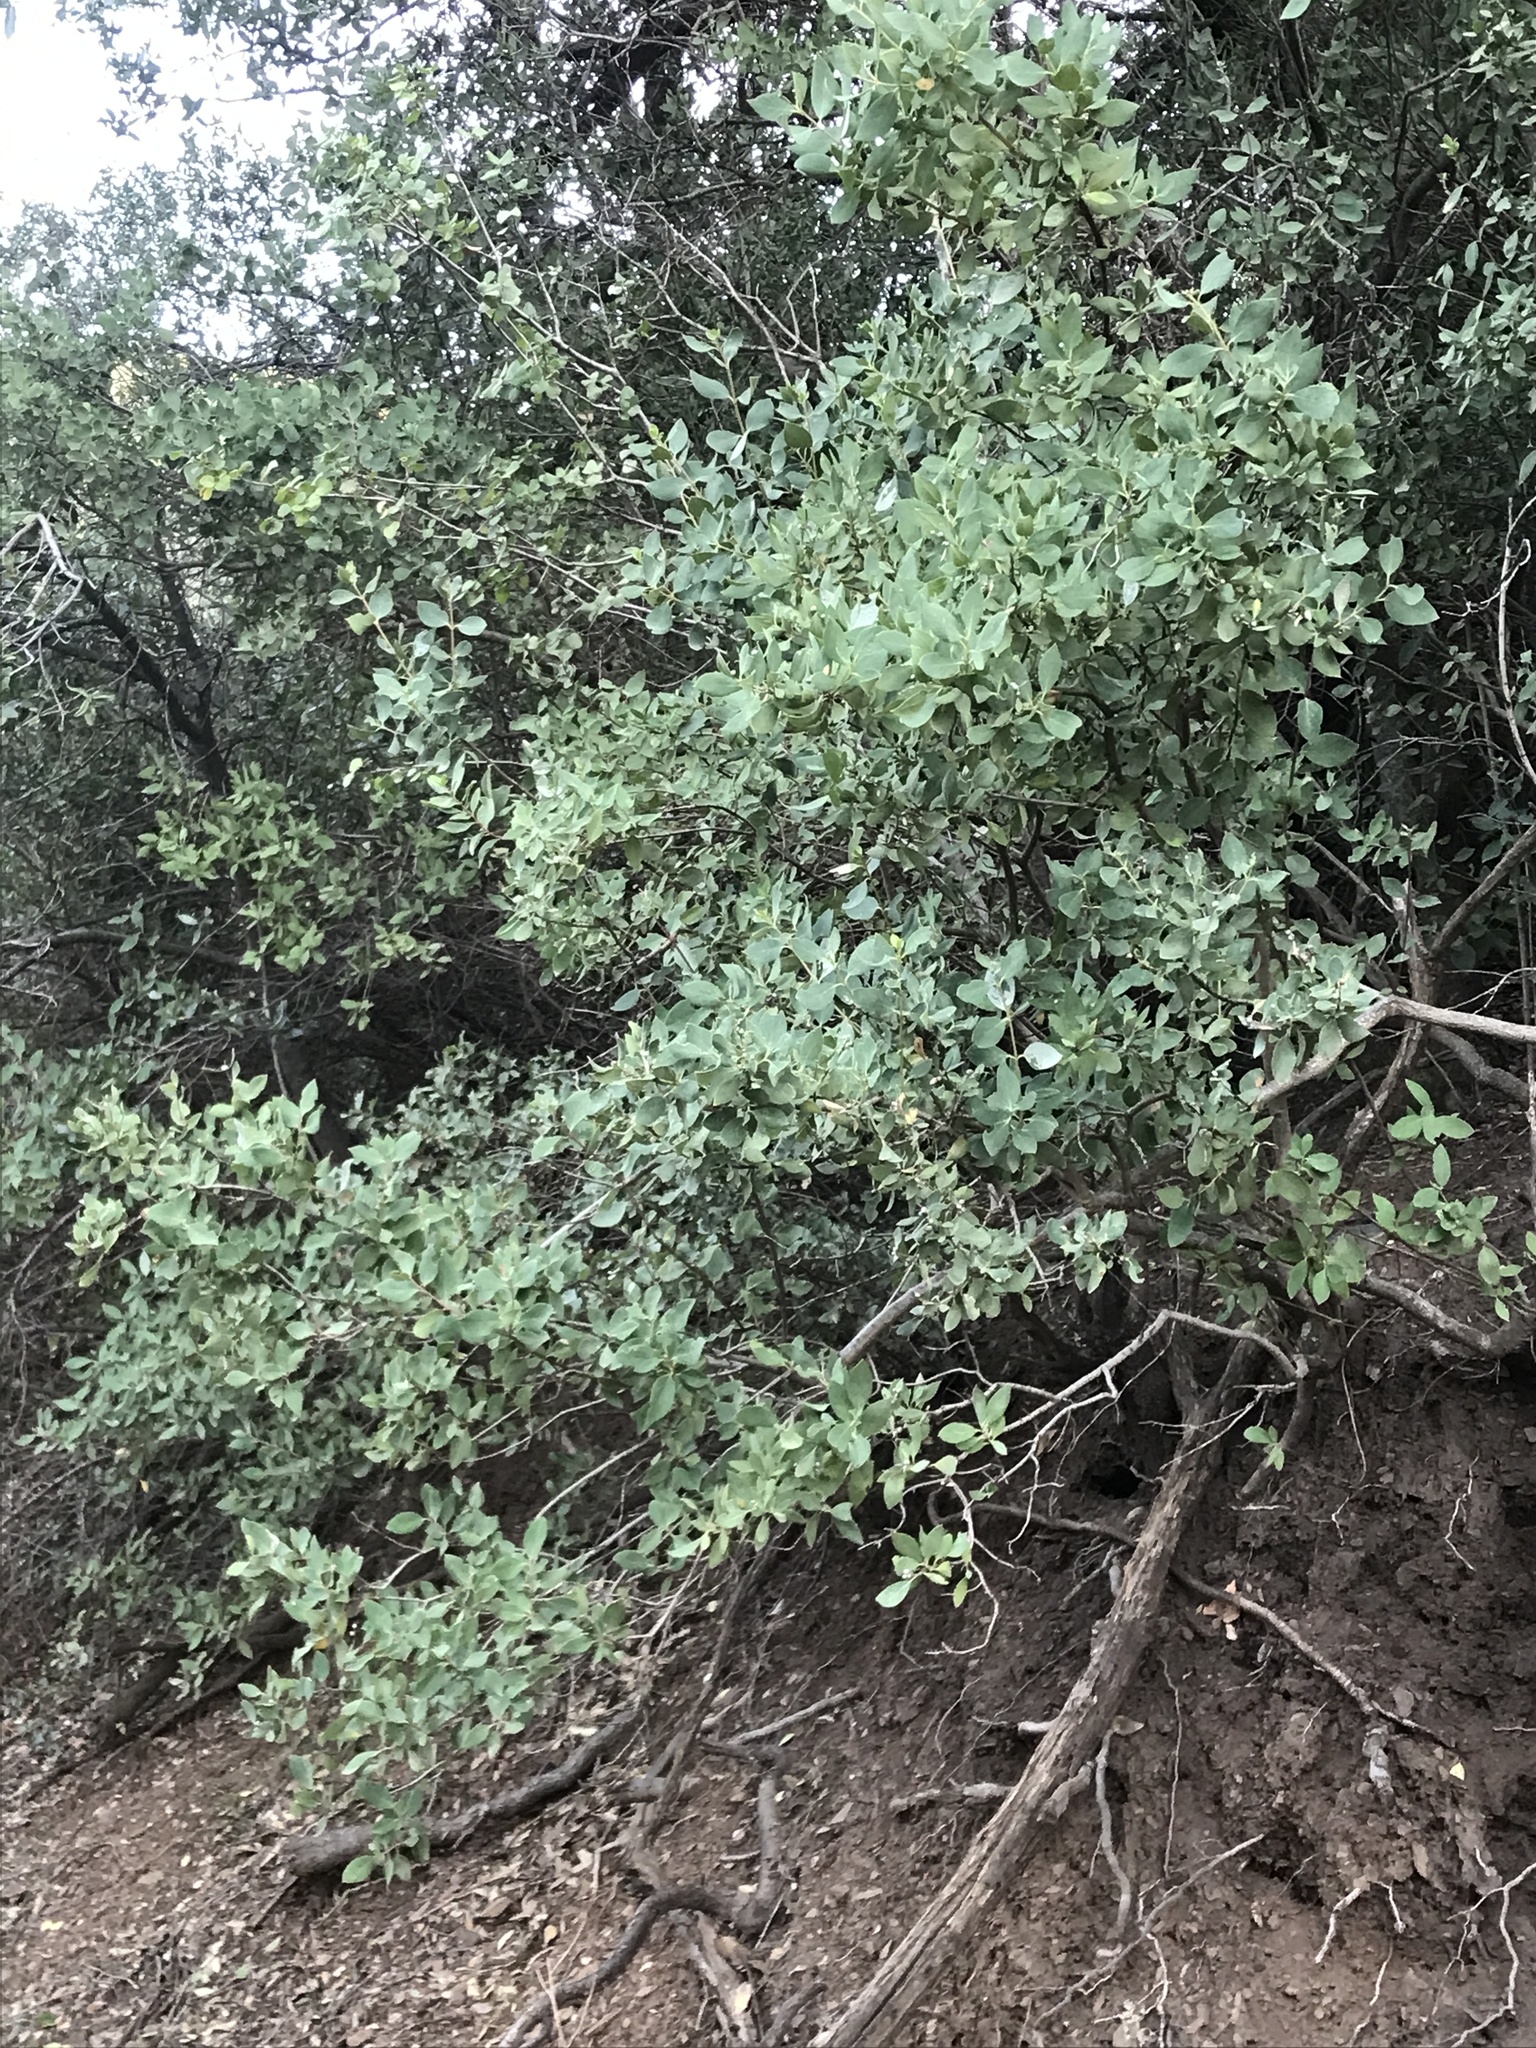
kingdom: Plantae
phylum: Tracheophyta
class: Magnoliopsida
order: Garryales
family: Garryaceae
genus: Garrya
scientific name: Garrya wrightii
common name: Wright's silktassel
